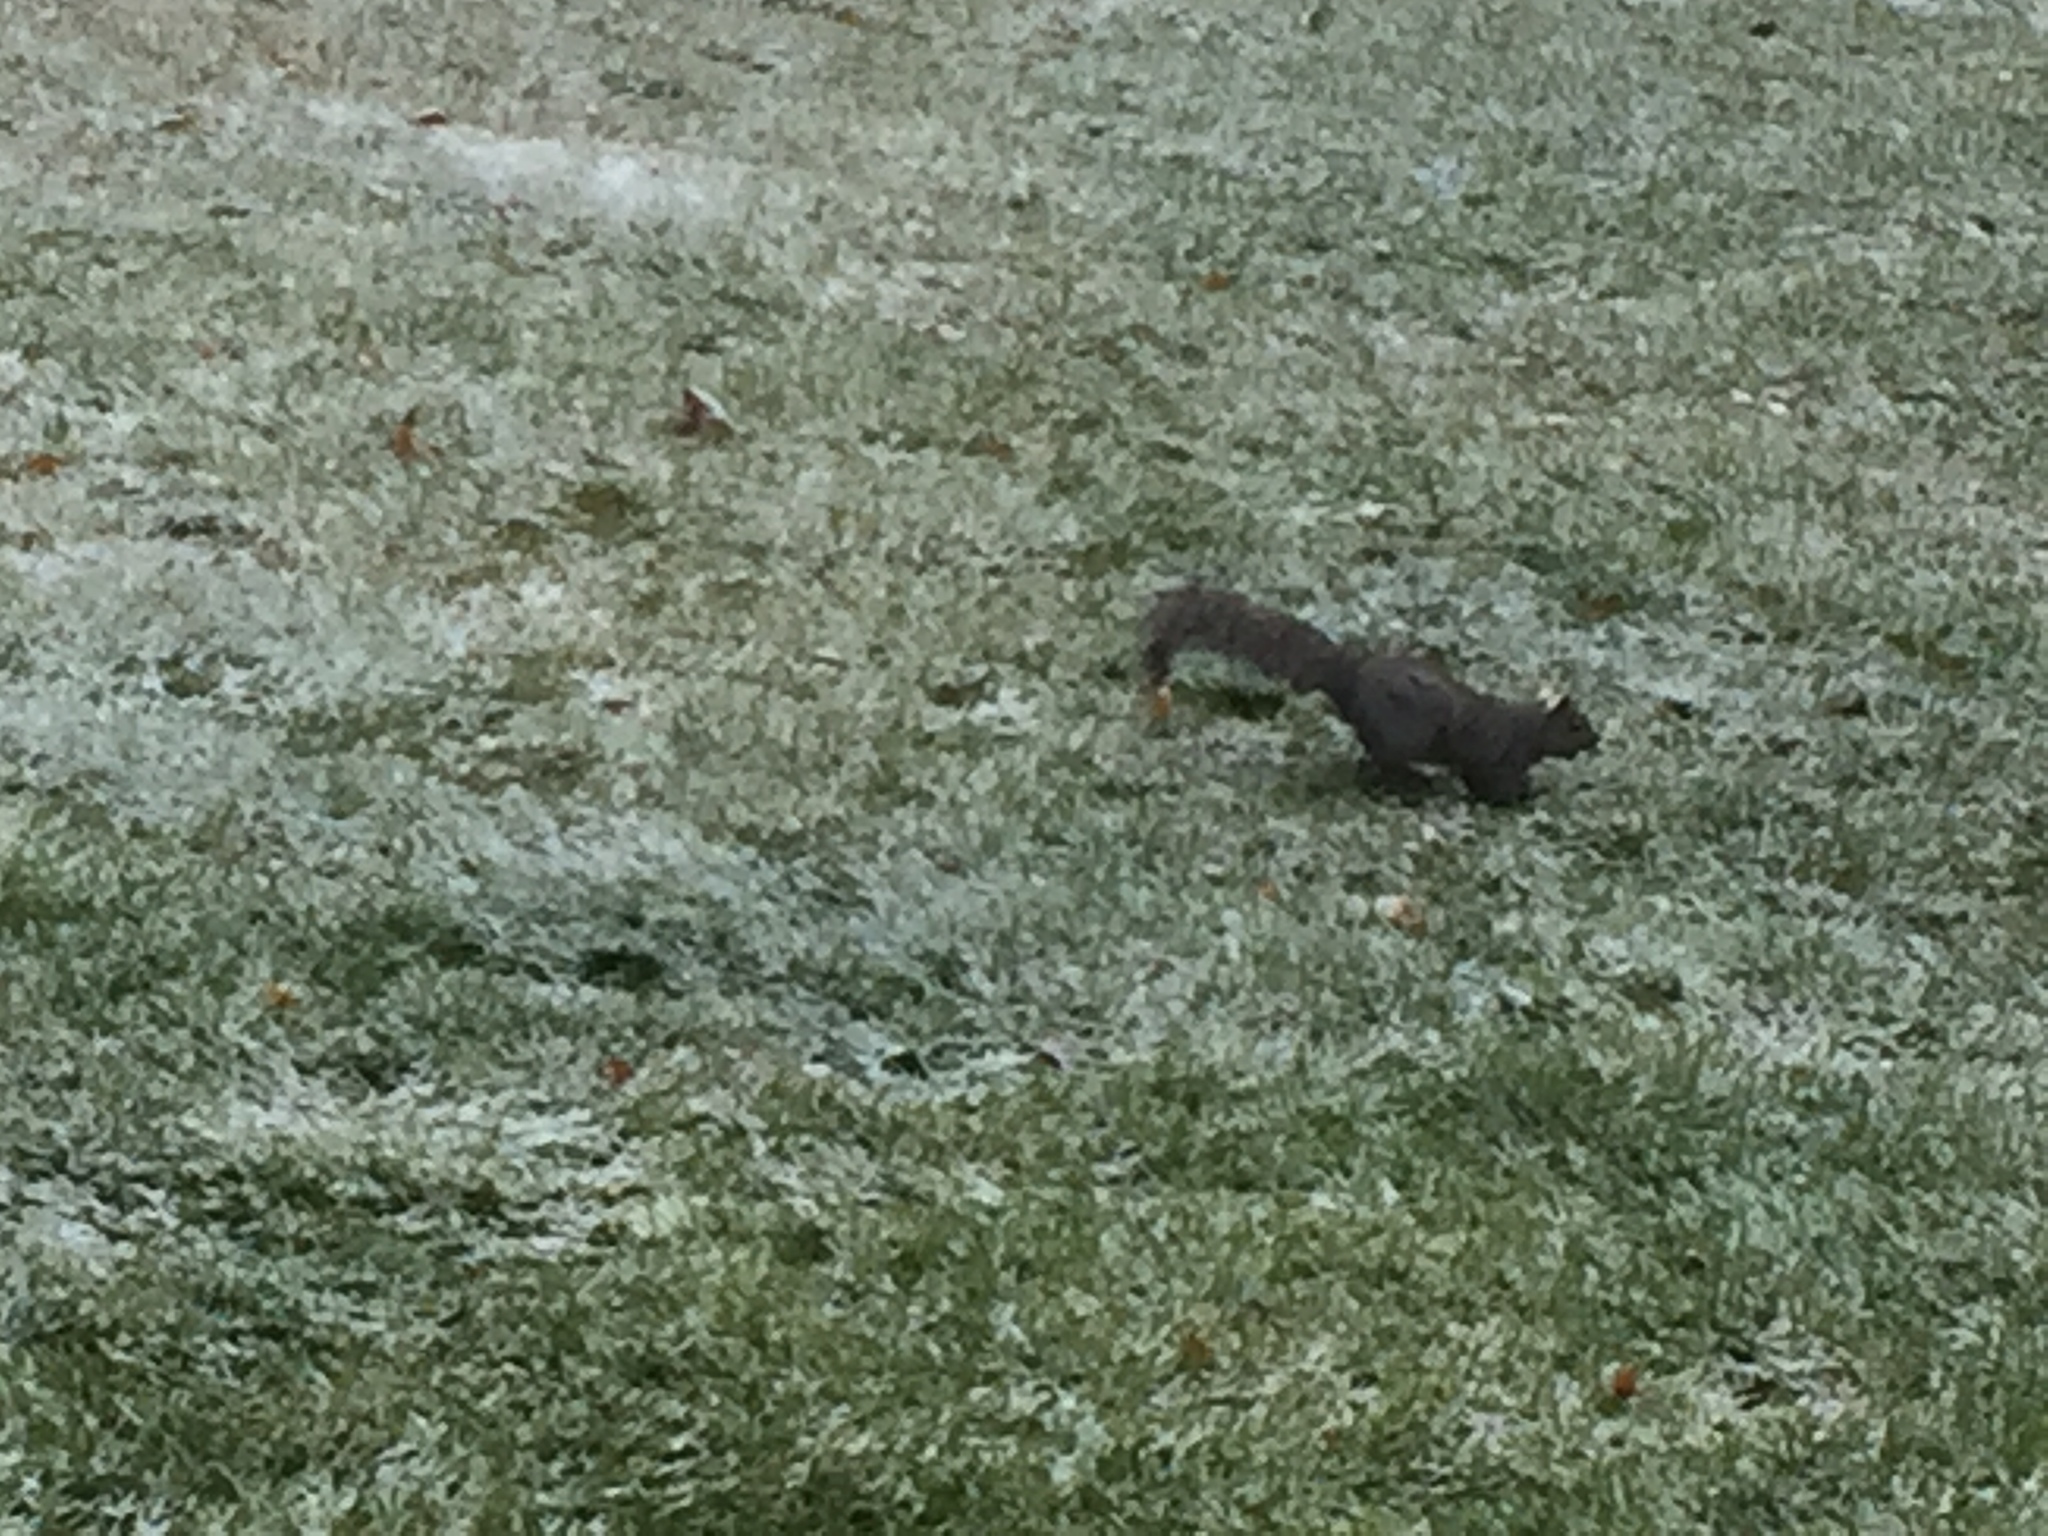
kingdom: Animalia
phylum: Chordata
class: Mammalia
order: Rodentia
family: Sciuridae
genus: Sciurus
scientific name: Sciurus carolinensis
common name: Eastern gray squirrel
